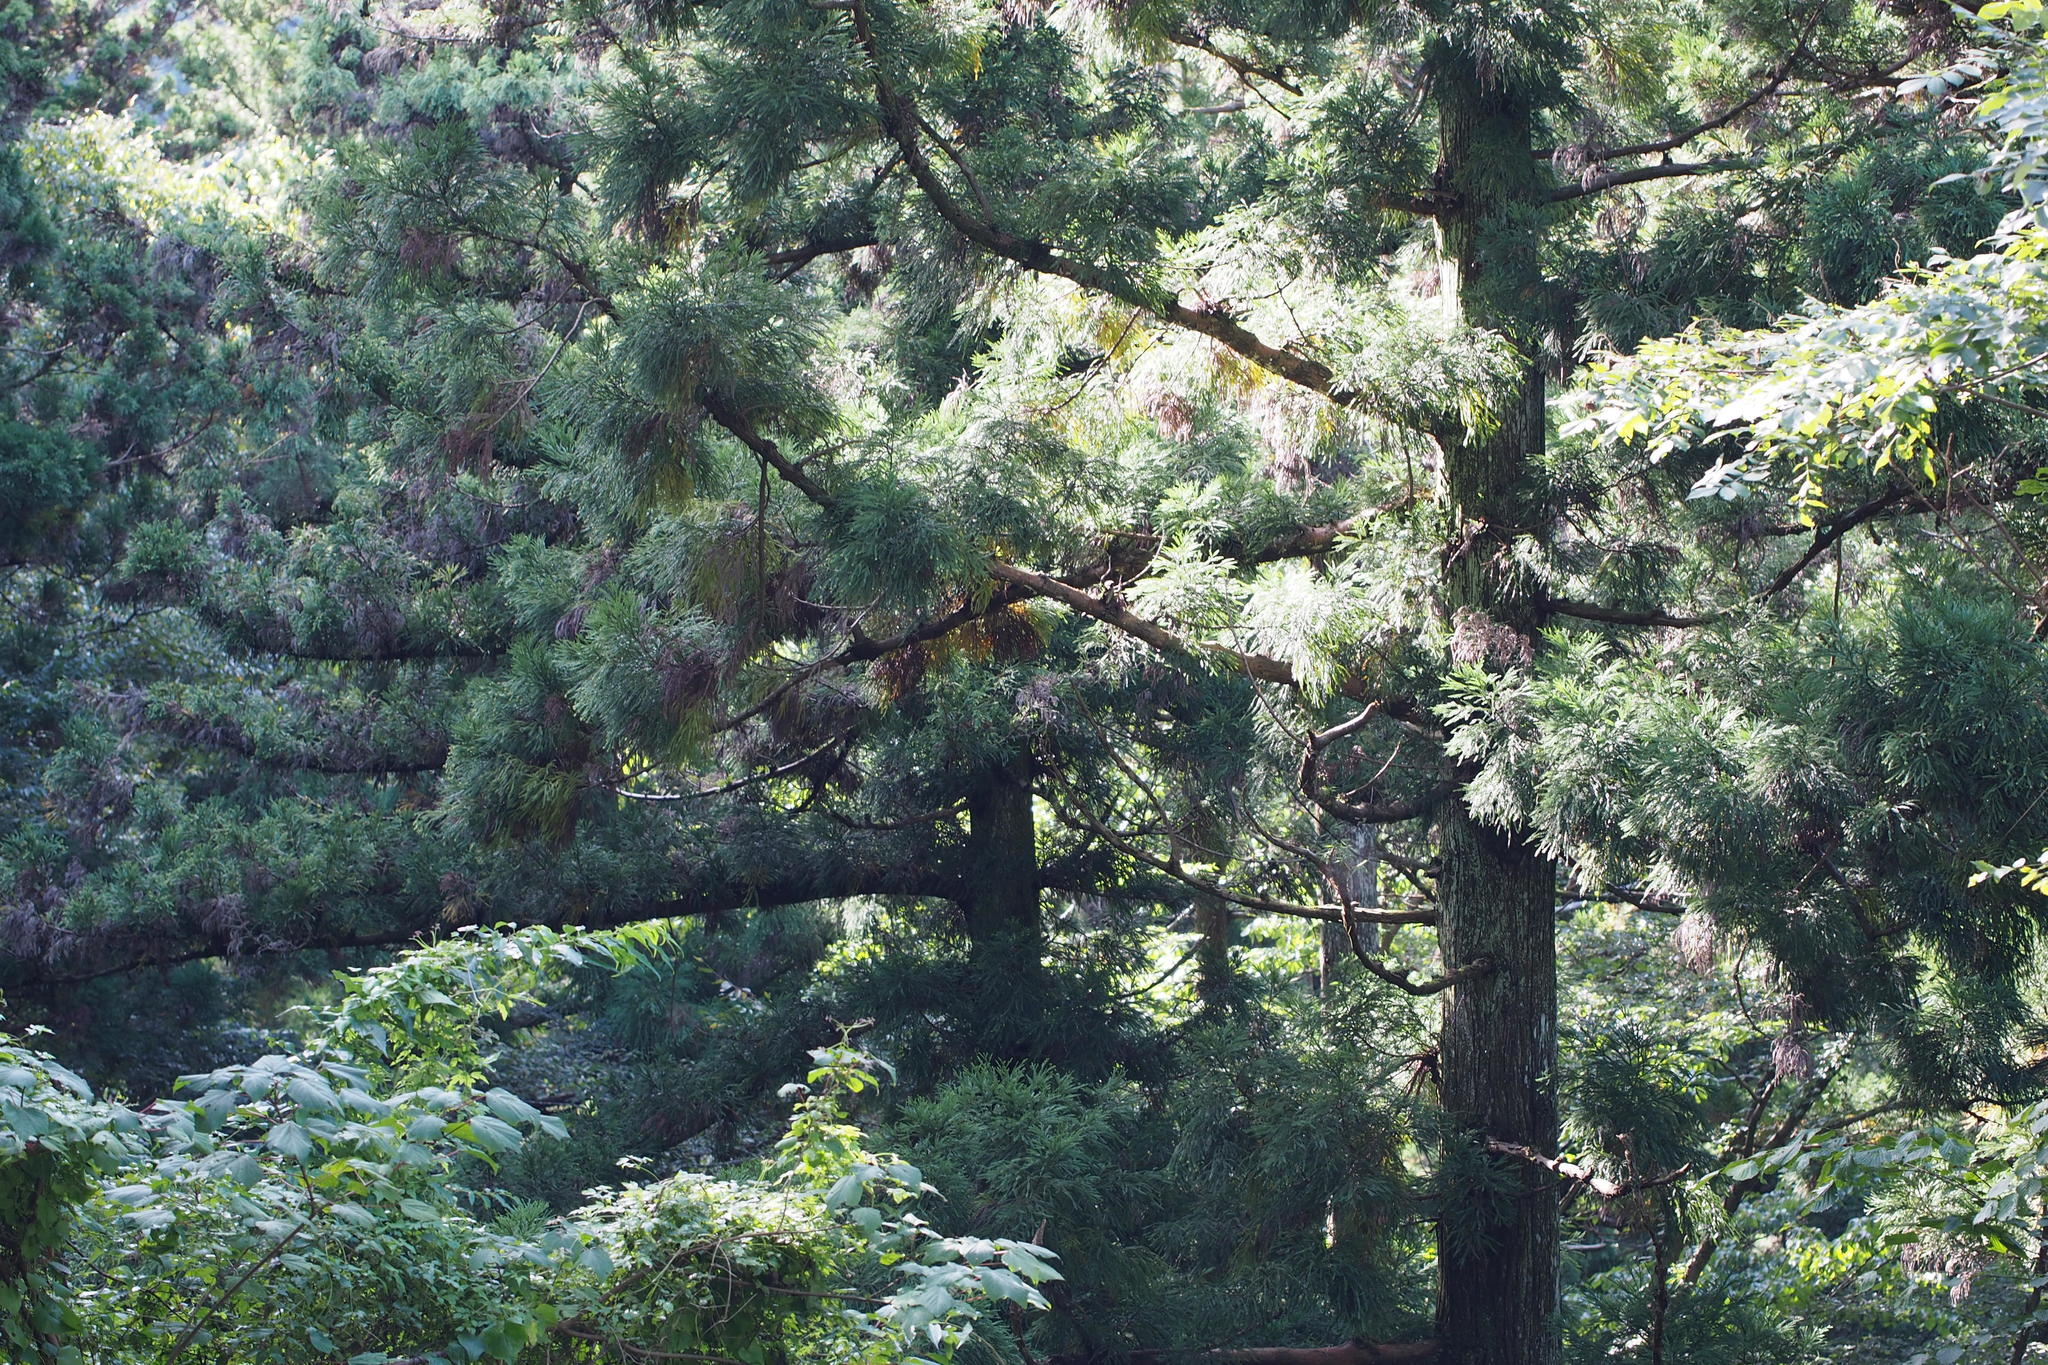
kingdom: Plantae
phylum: Tracheophyta
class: Pinopsida
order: Pinales
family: Cupressaceae
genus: Cryptomeria
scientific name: Cryptomeria japonica
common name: Japanese cedar
